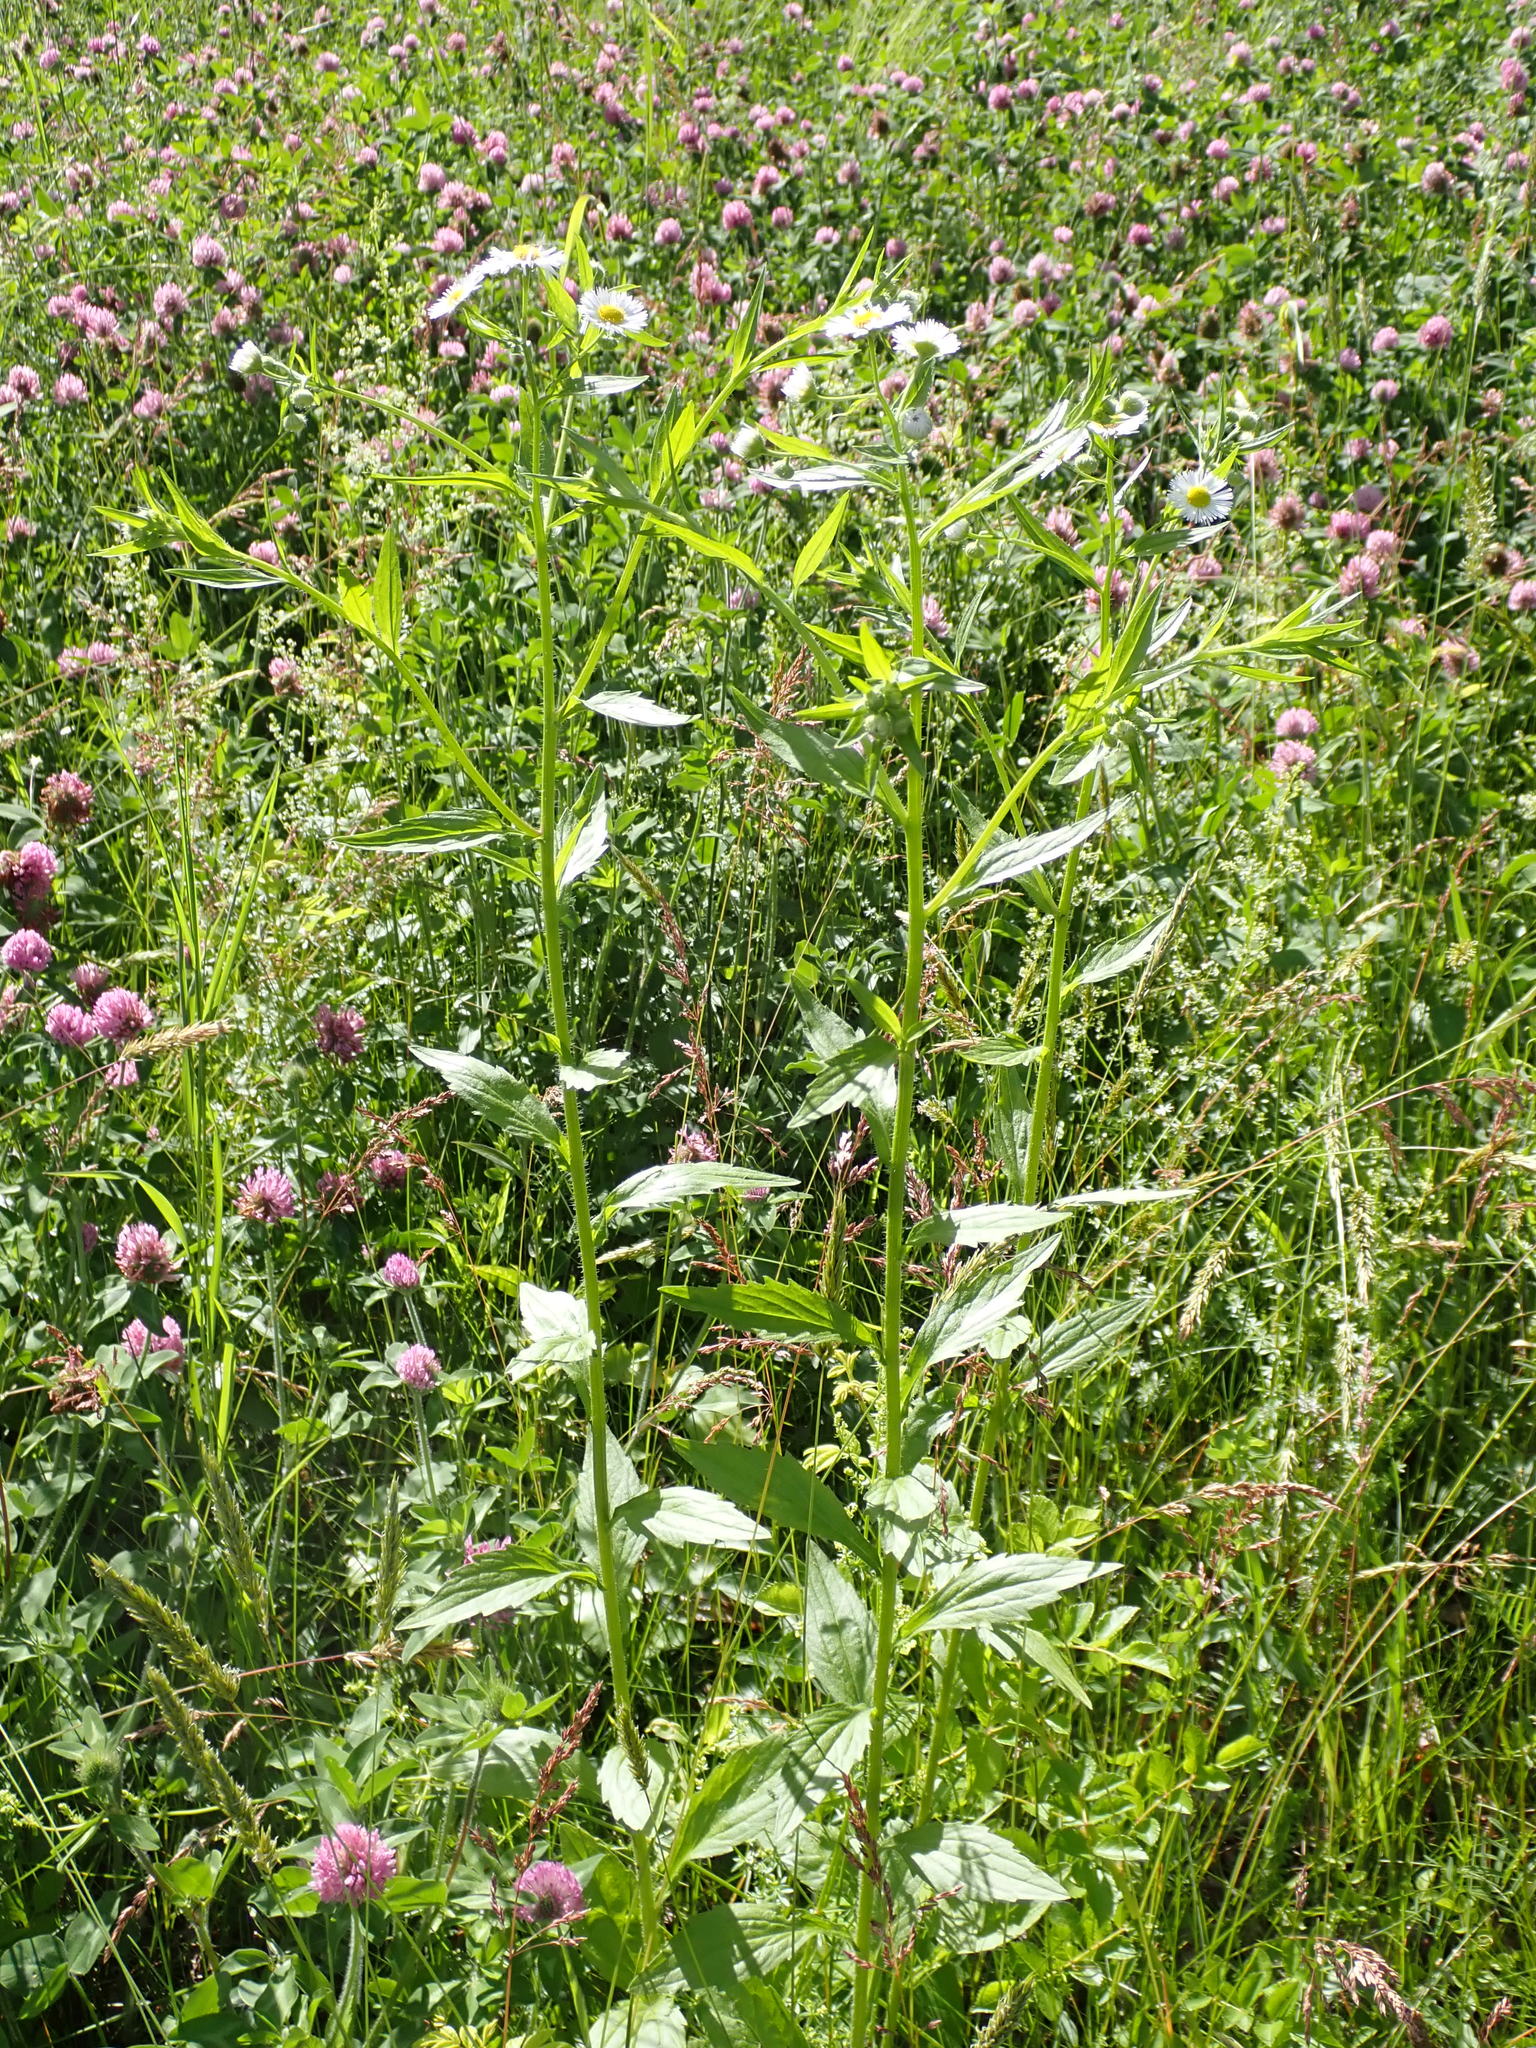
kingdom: Plantae
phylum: Tracheophyta
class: Magnoliopsida
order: Asterales
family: Asteraceae
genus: Erigeron
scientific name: Erigeron annuus
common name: Tall fleabane
